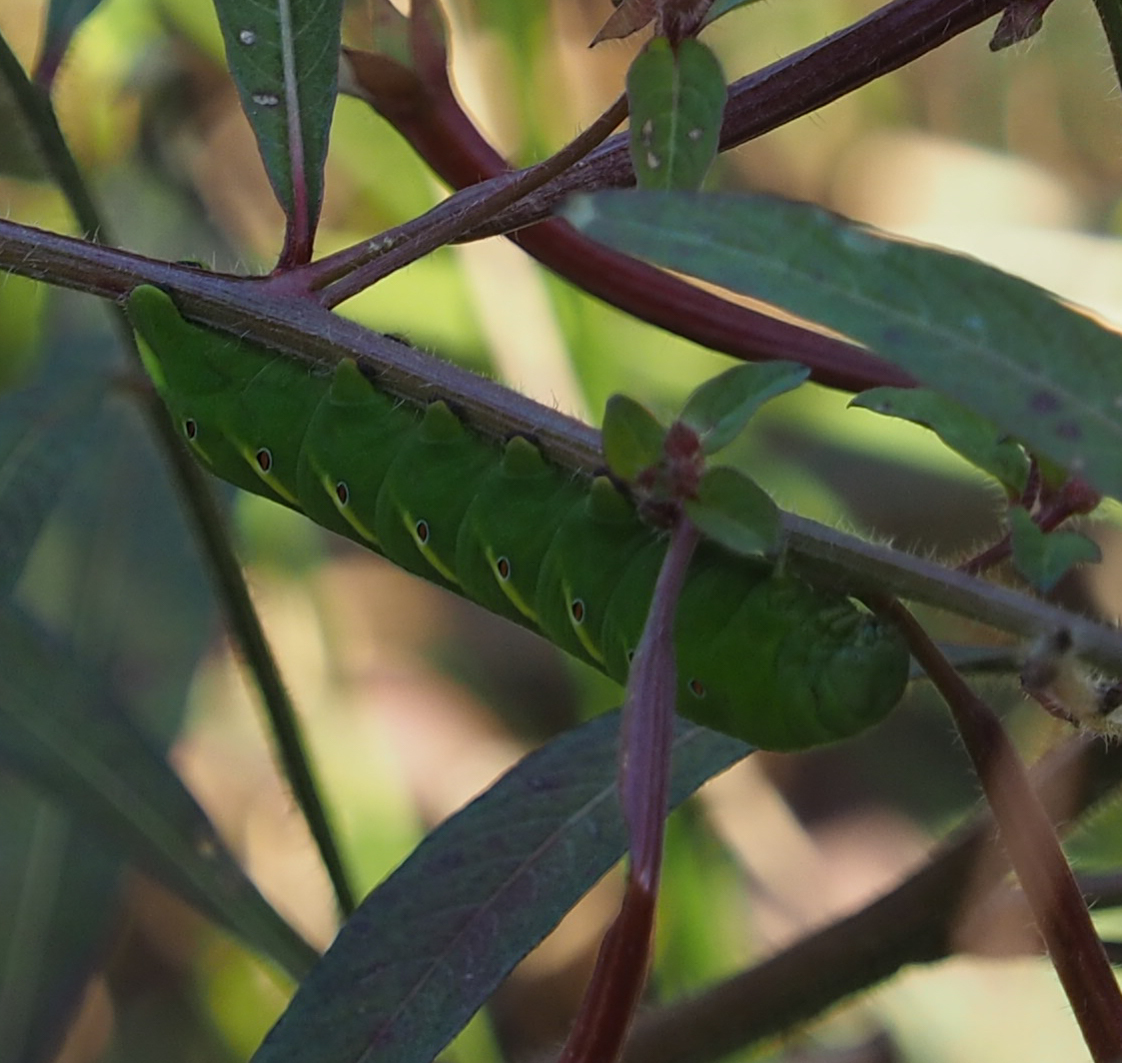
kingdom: Animalia
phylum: Arthropoda
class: Insecta
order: Lepidoptera
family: Sphingidae
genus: Eumorpha
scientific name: Eumorpha fasciatus
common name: Banded sphinx
